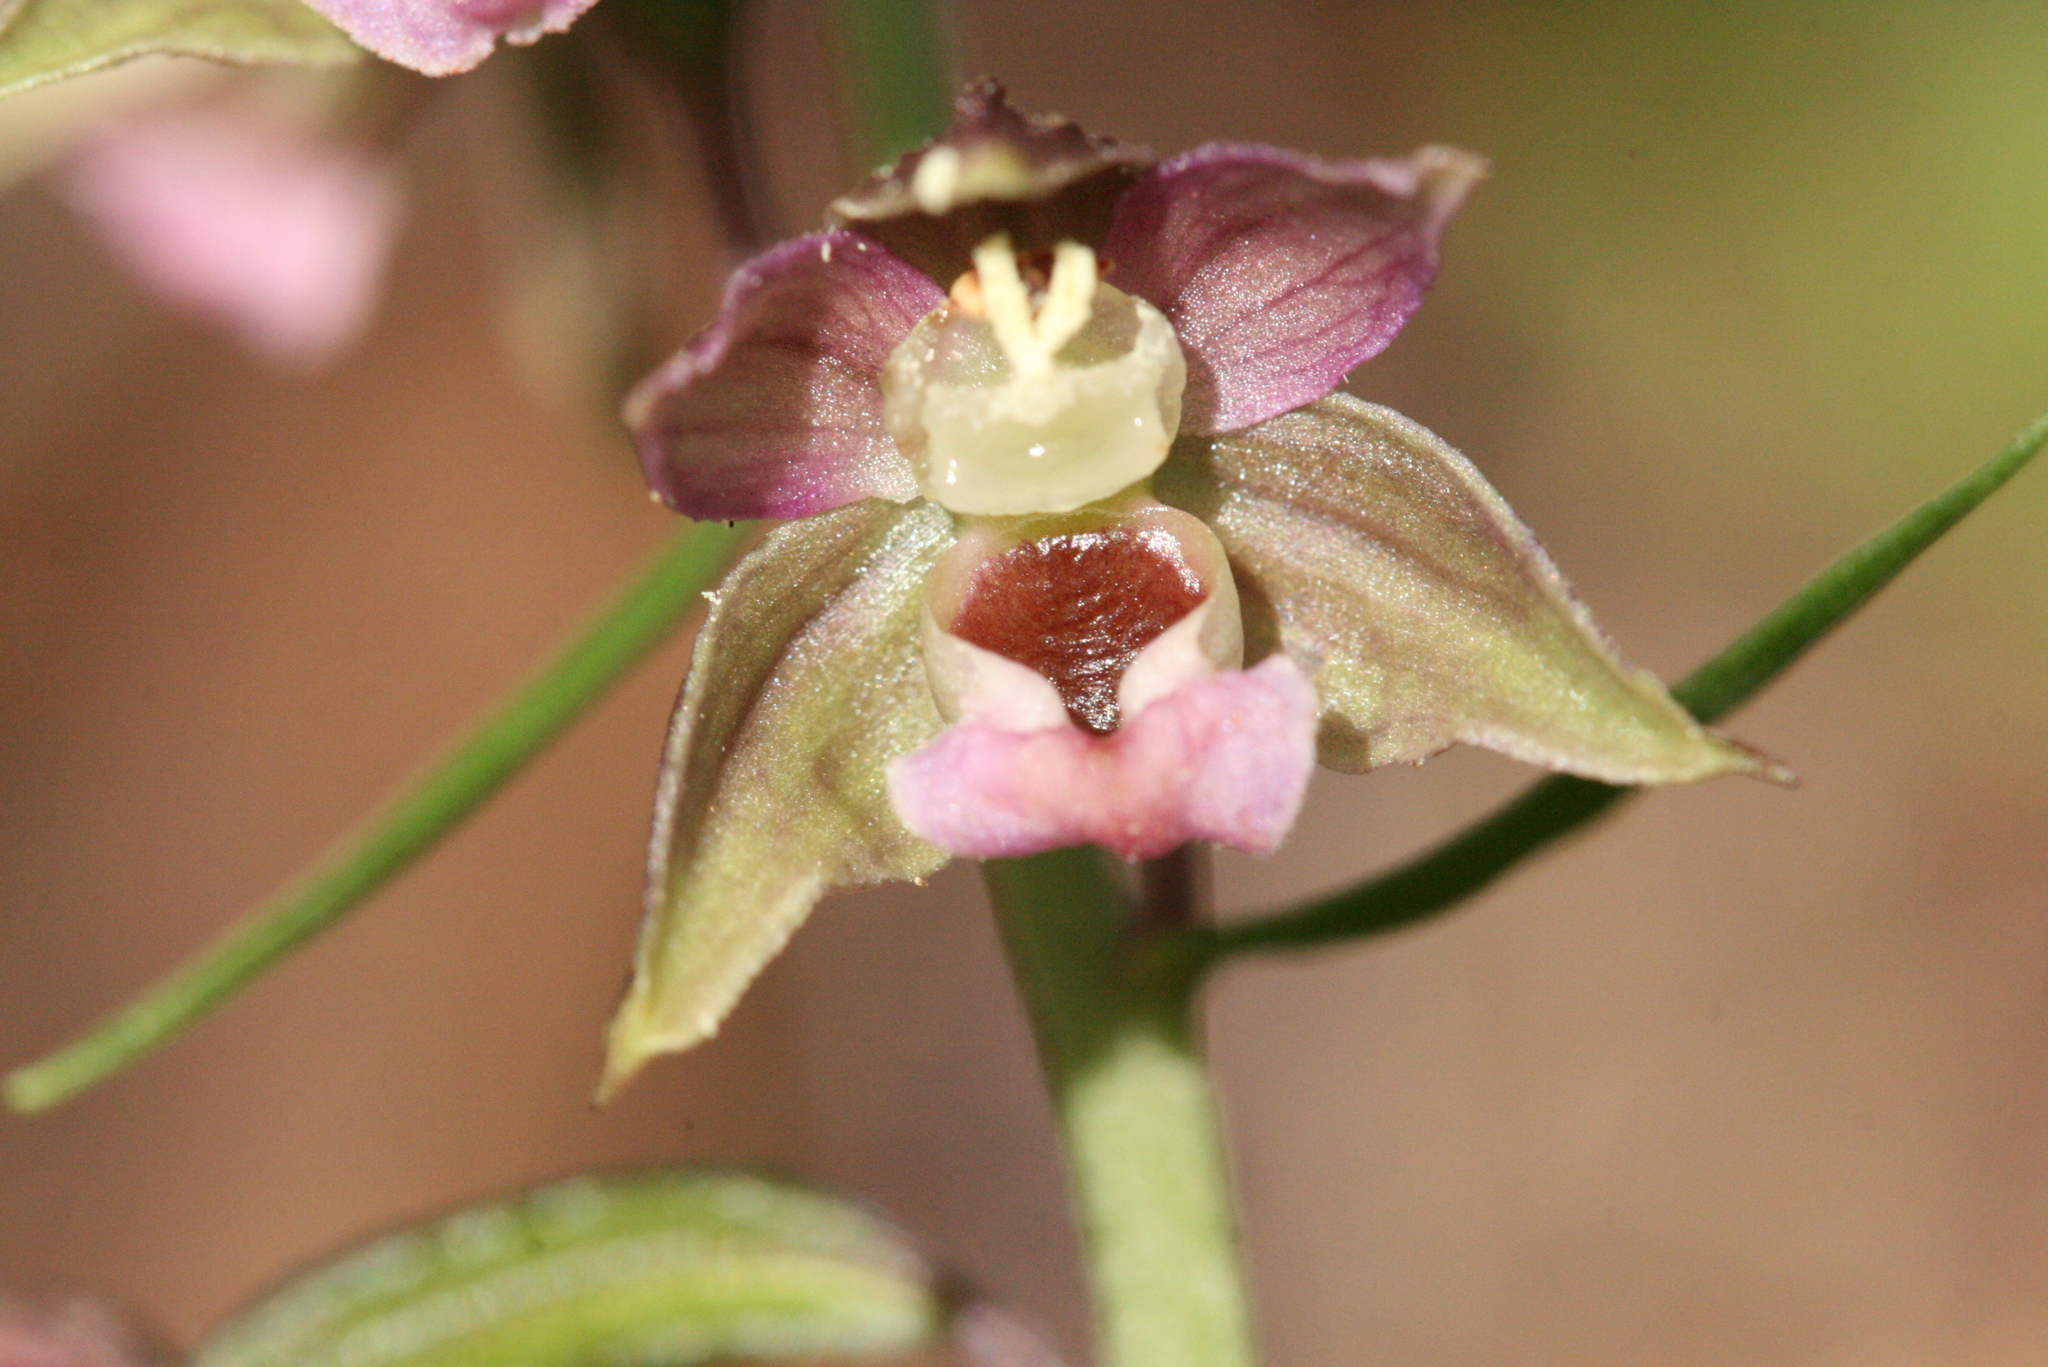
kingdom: Plantae
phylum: Tracheophyta
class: Liliopsida
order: Asparagales
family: Orchidaceae
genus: Epipactis
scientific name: Epipactis helleborine
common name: Broad-leaved helleborine
